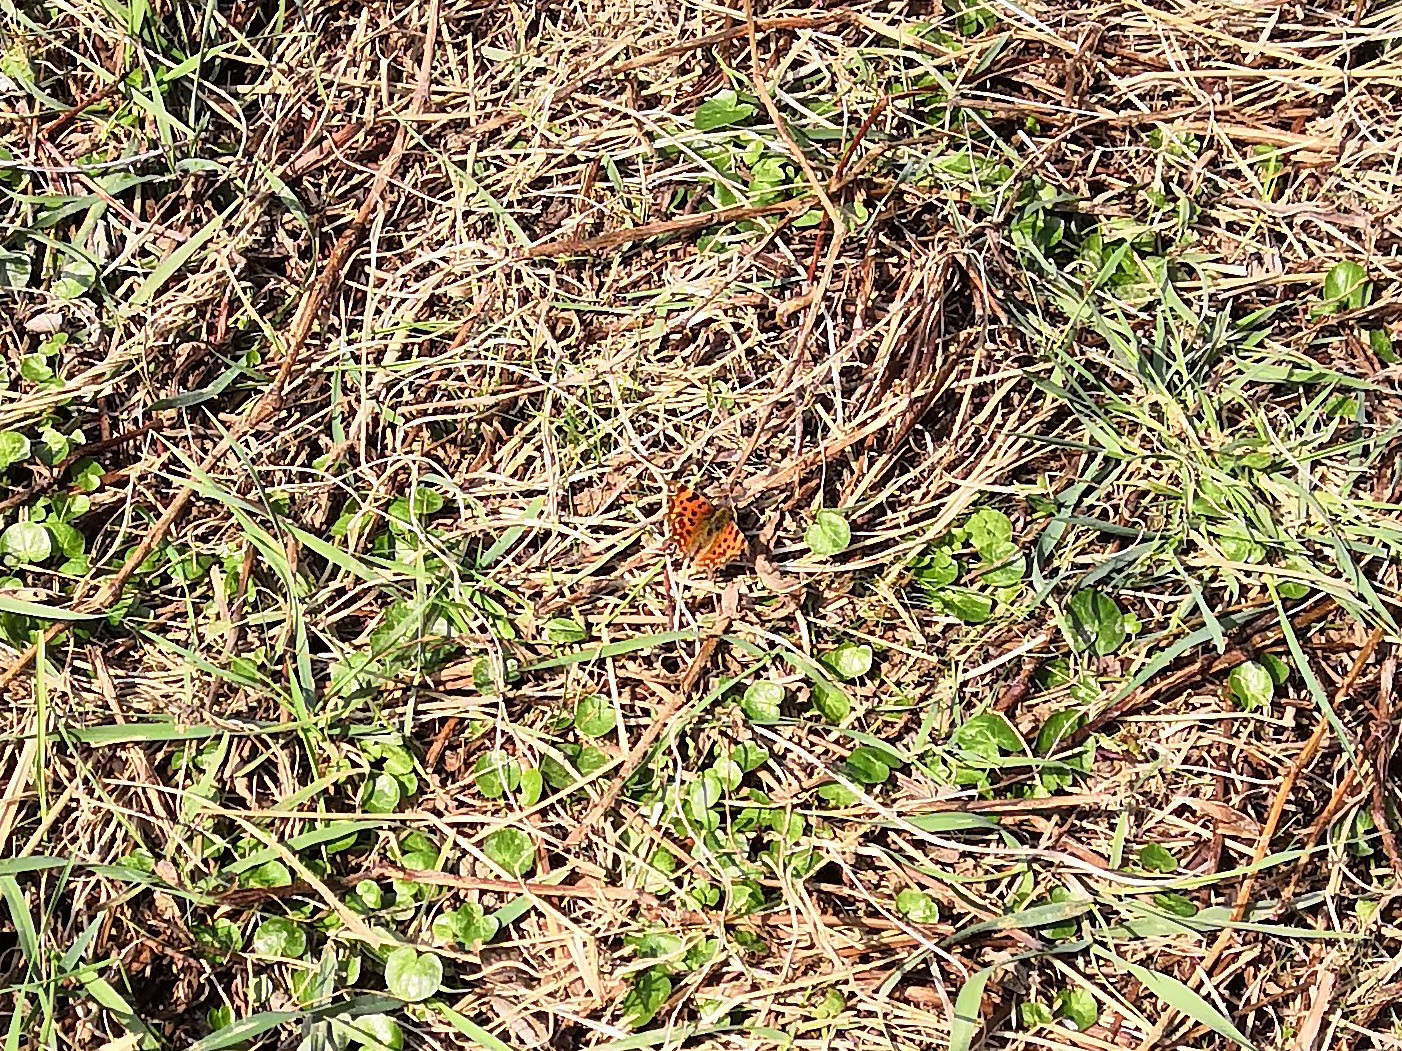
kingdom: Animalia
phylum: Arthropoda
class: Insecta
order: Lepidoptera
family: Nymphalidae
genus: Polygonia
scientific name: Polygonia c-album
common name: Comma
